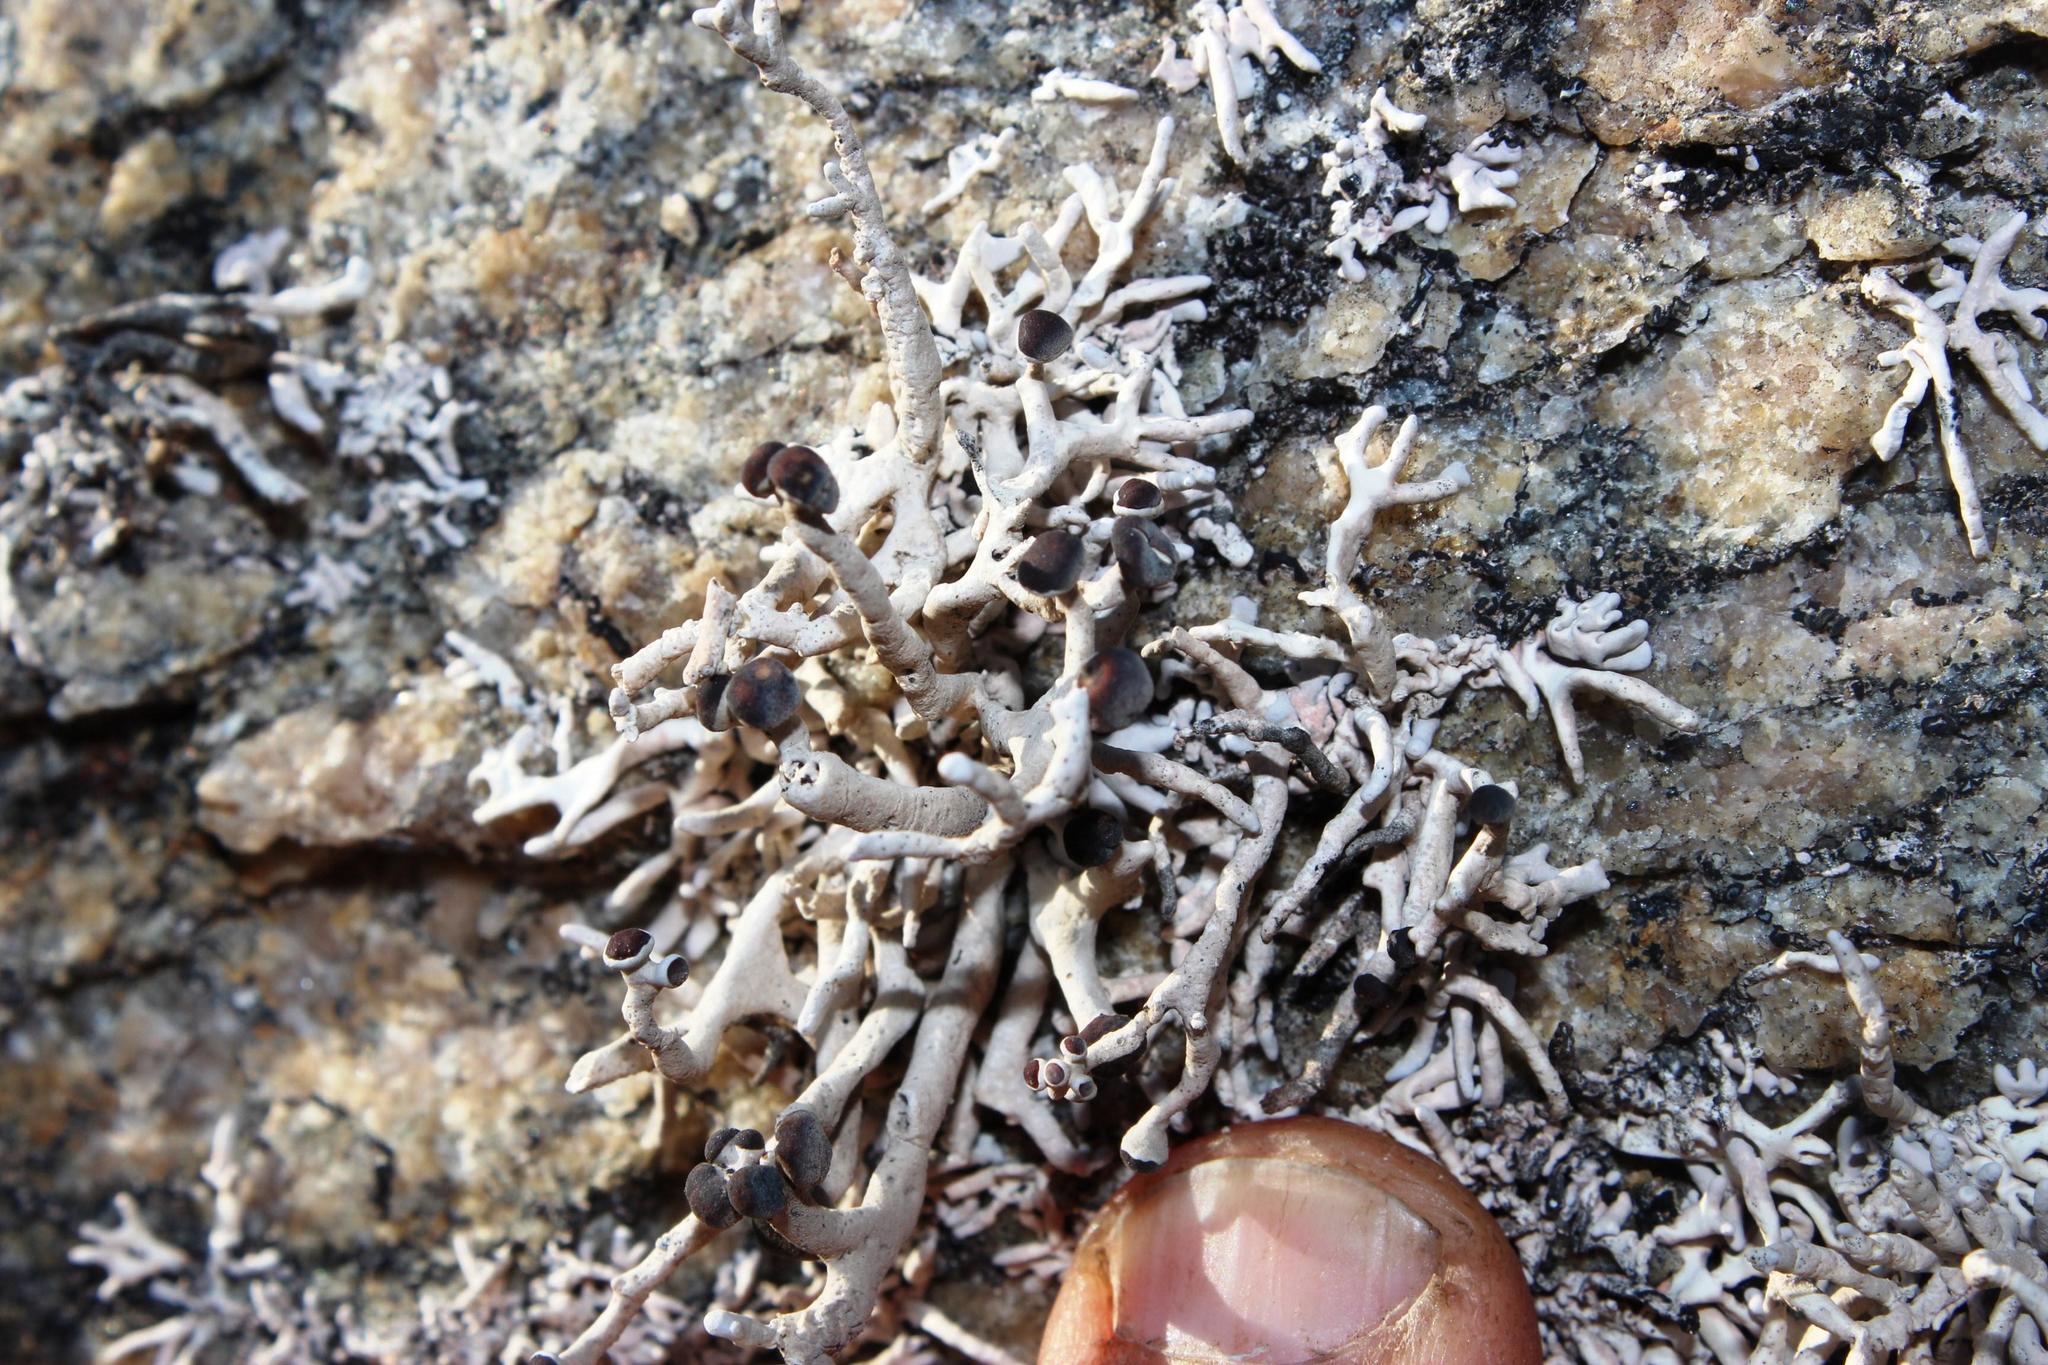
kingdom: Fungi
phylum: Ascomycota
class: Arthoniomycetes
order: Arthoniales
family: Opegraphaceae
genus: Combea
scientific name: Combea mollusca
